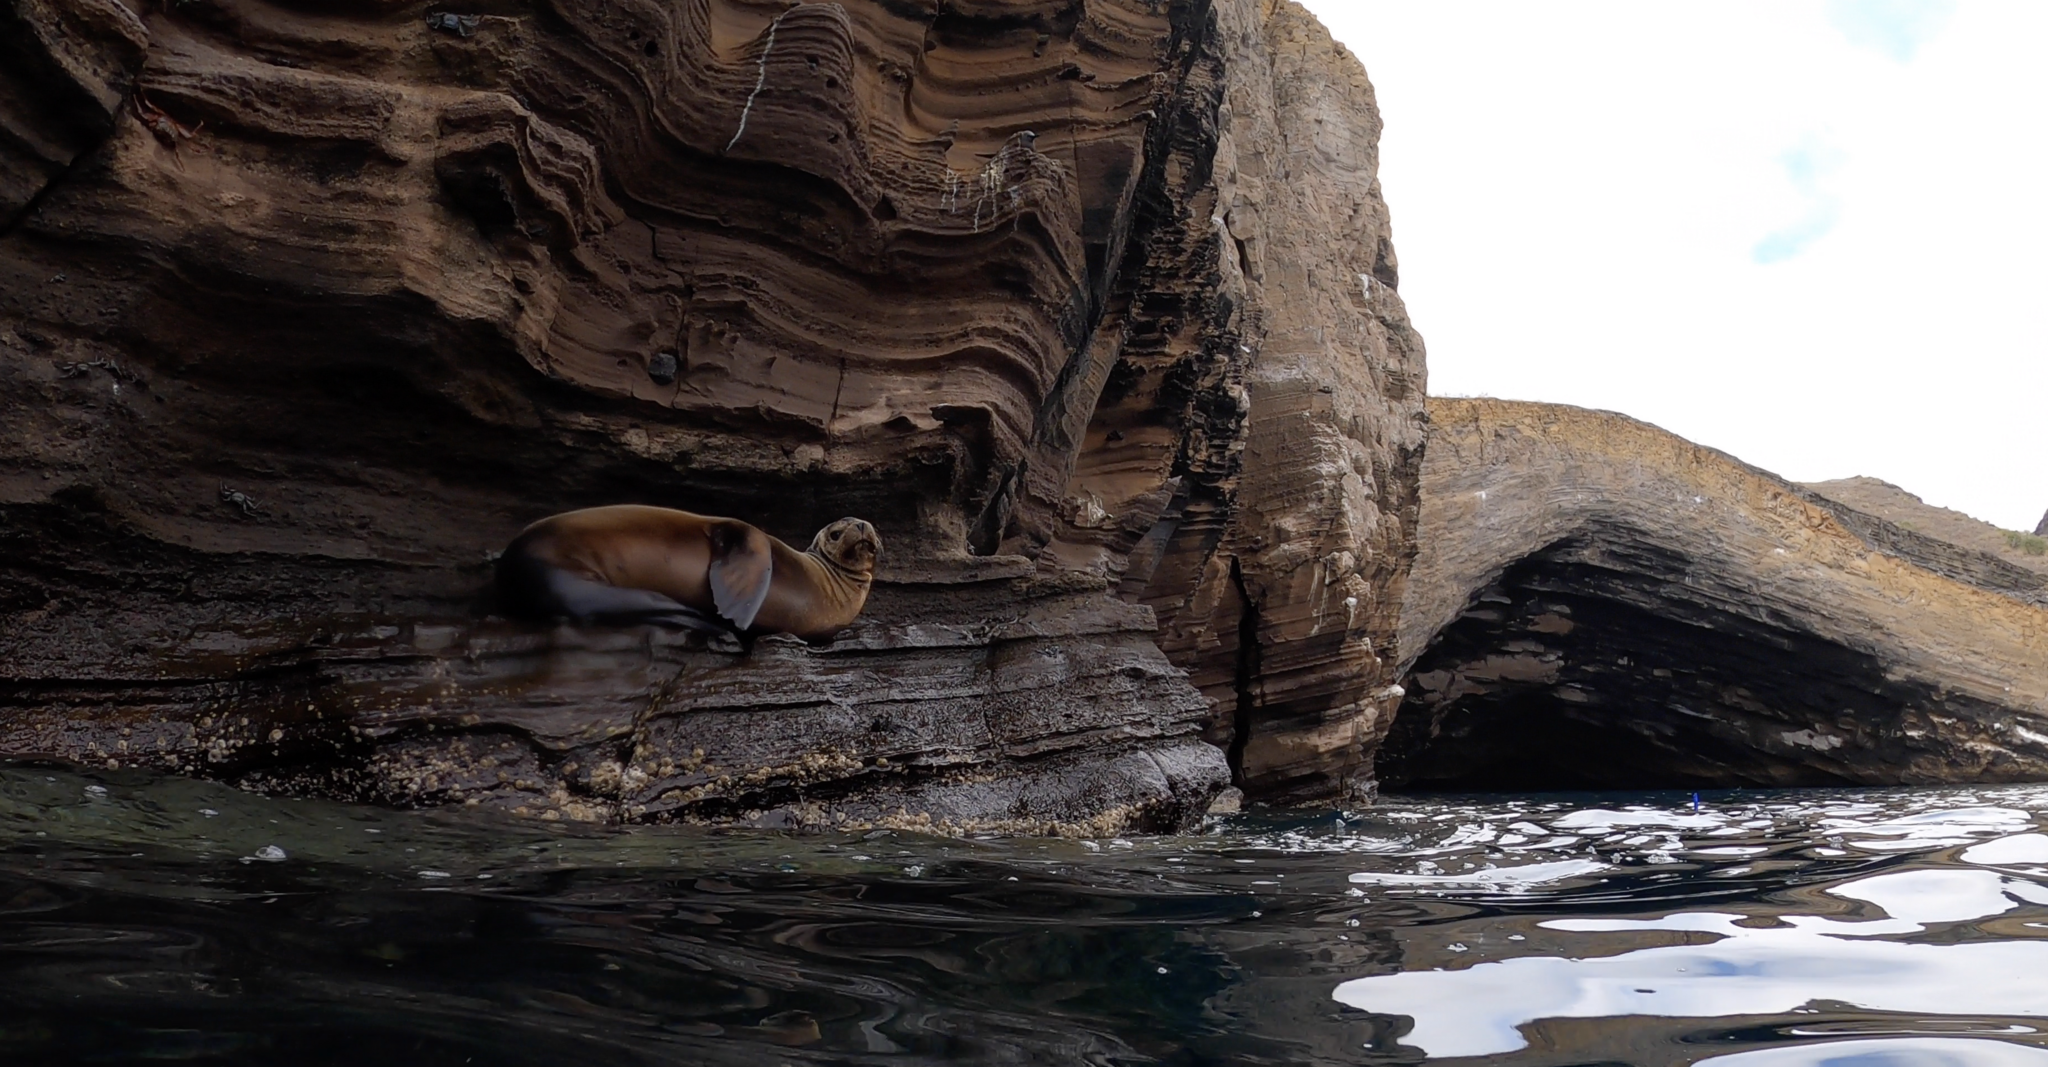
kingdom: Animalia
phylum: Chordata
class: Mammalia
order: Carnivora
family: Otariidae
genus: Zalophus
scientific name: Zalophus wollebaeki
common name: Galapagos sea lion
